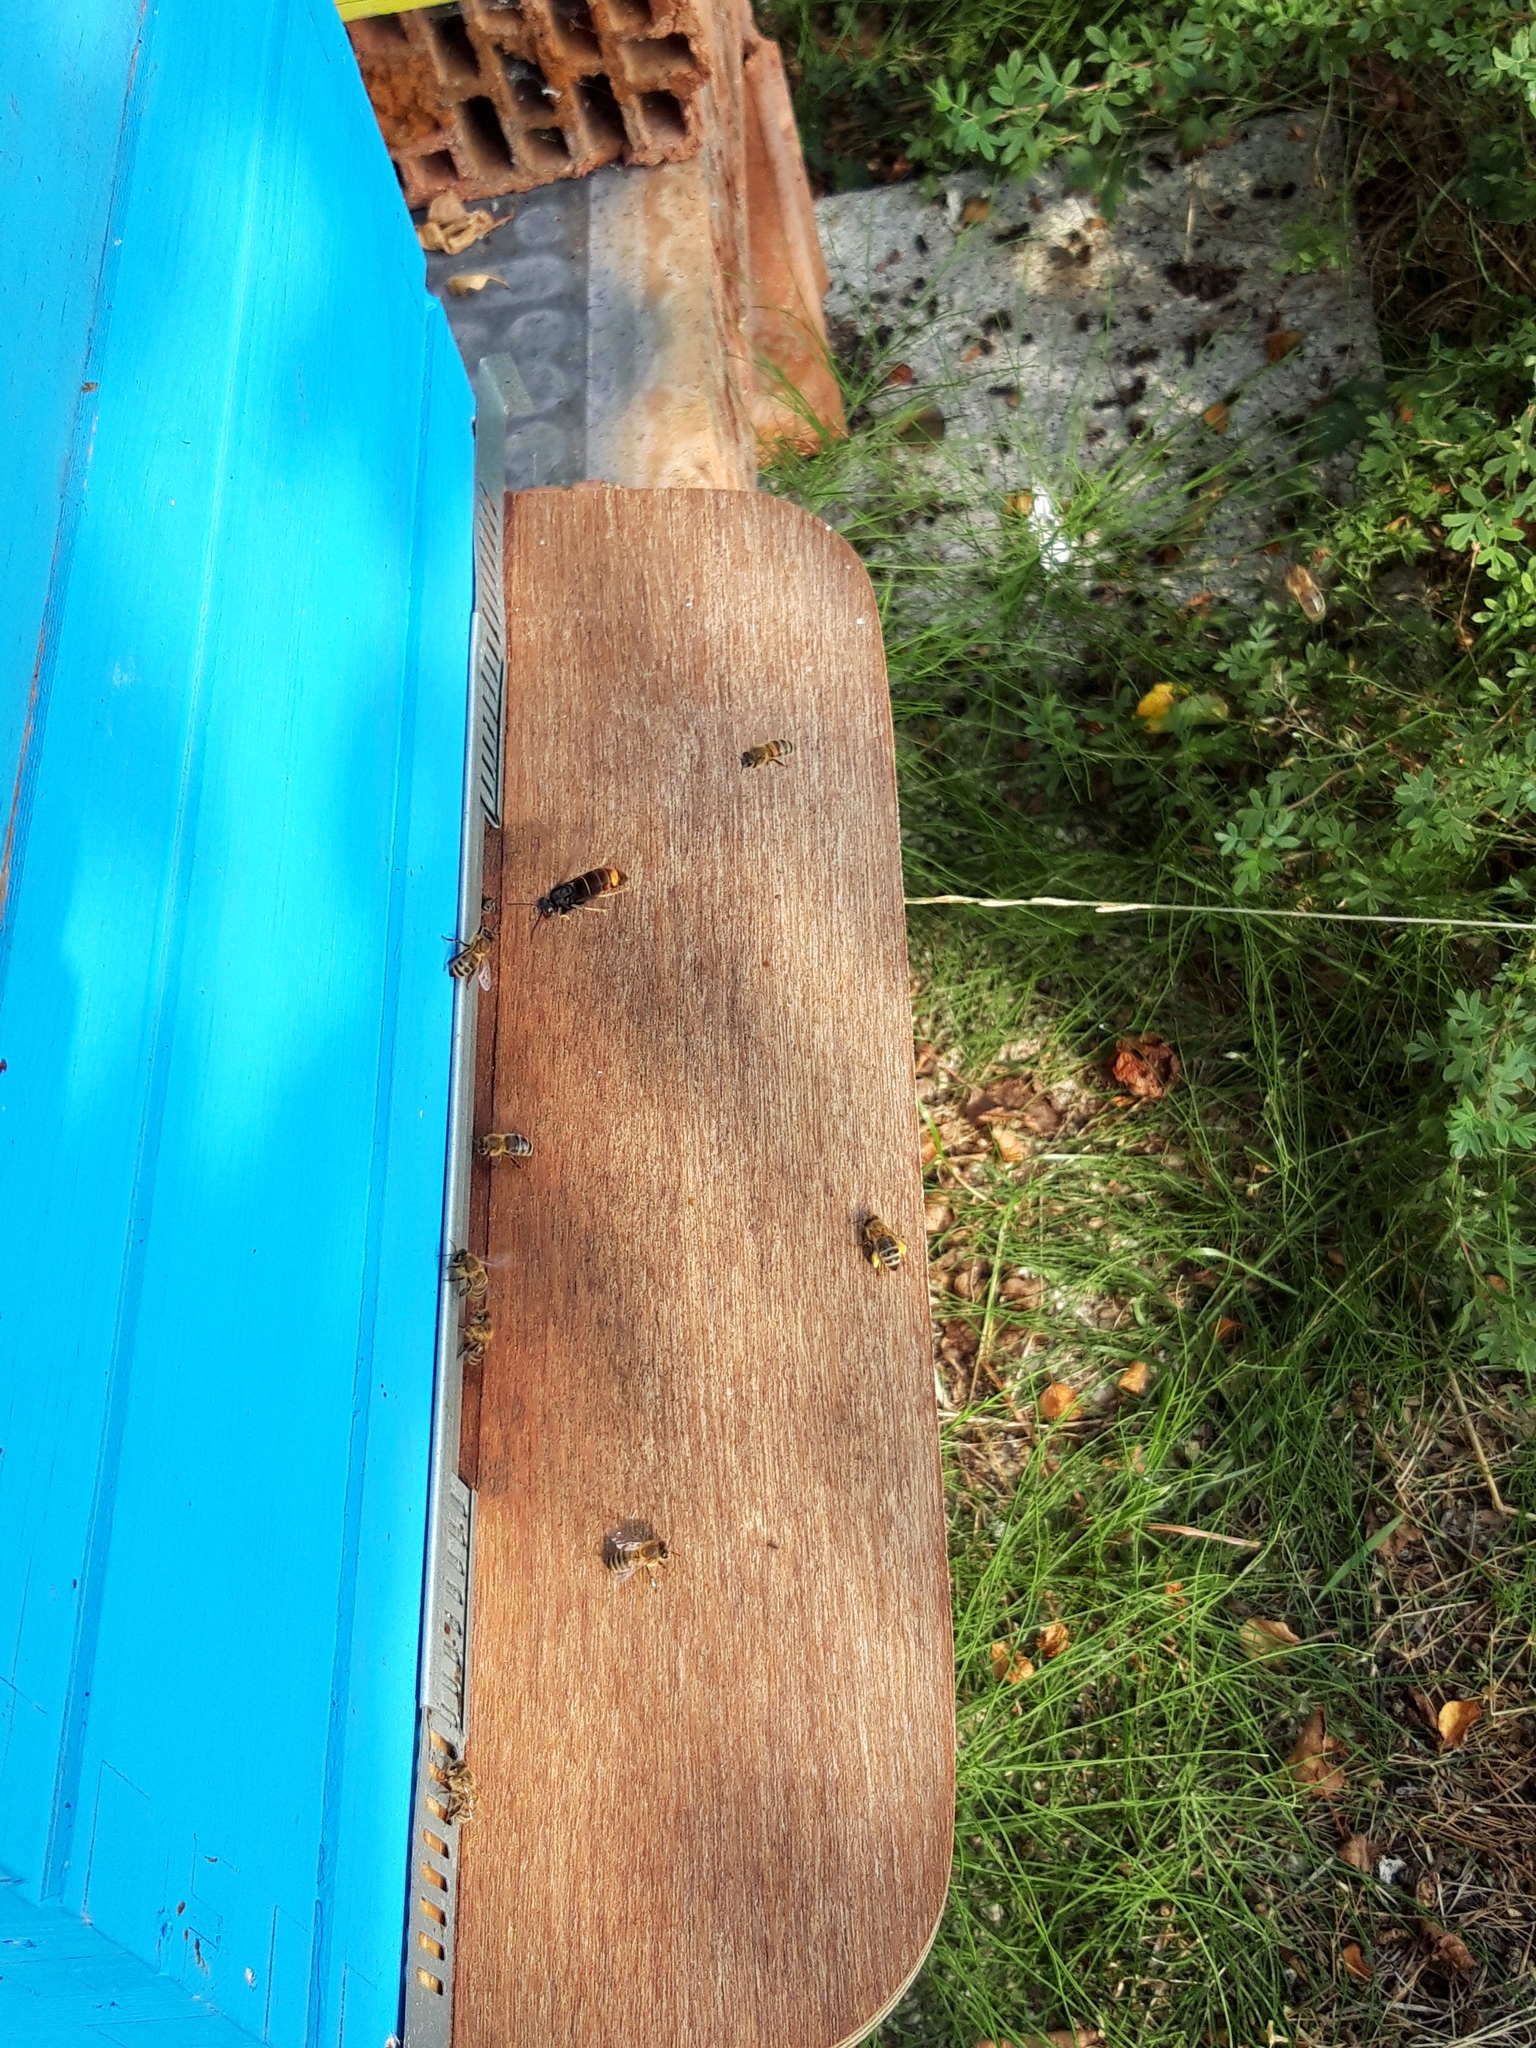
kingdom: Animalia
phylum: Arthropoda
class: Insecta
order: Hymenoptera
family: Vespidae
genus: Vespa
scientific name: Vespa velutina
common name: Asian hornet
